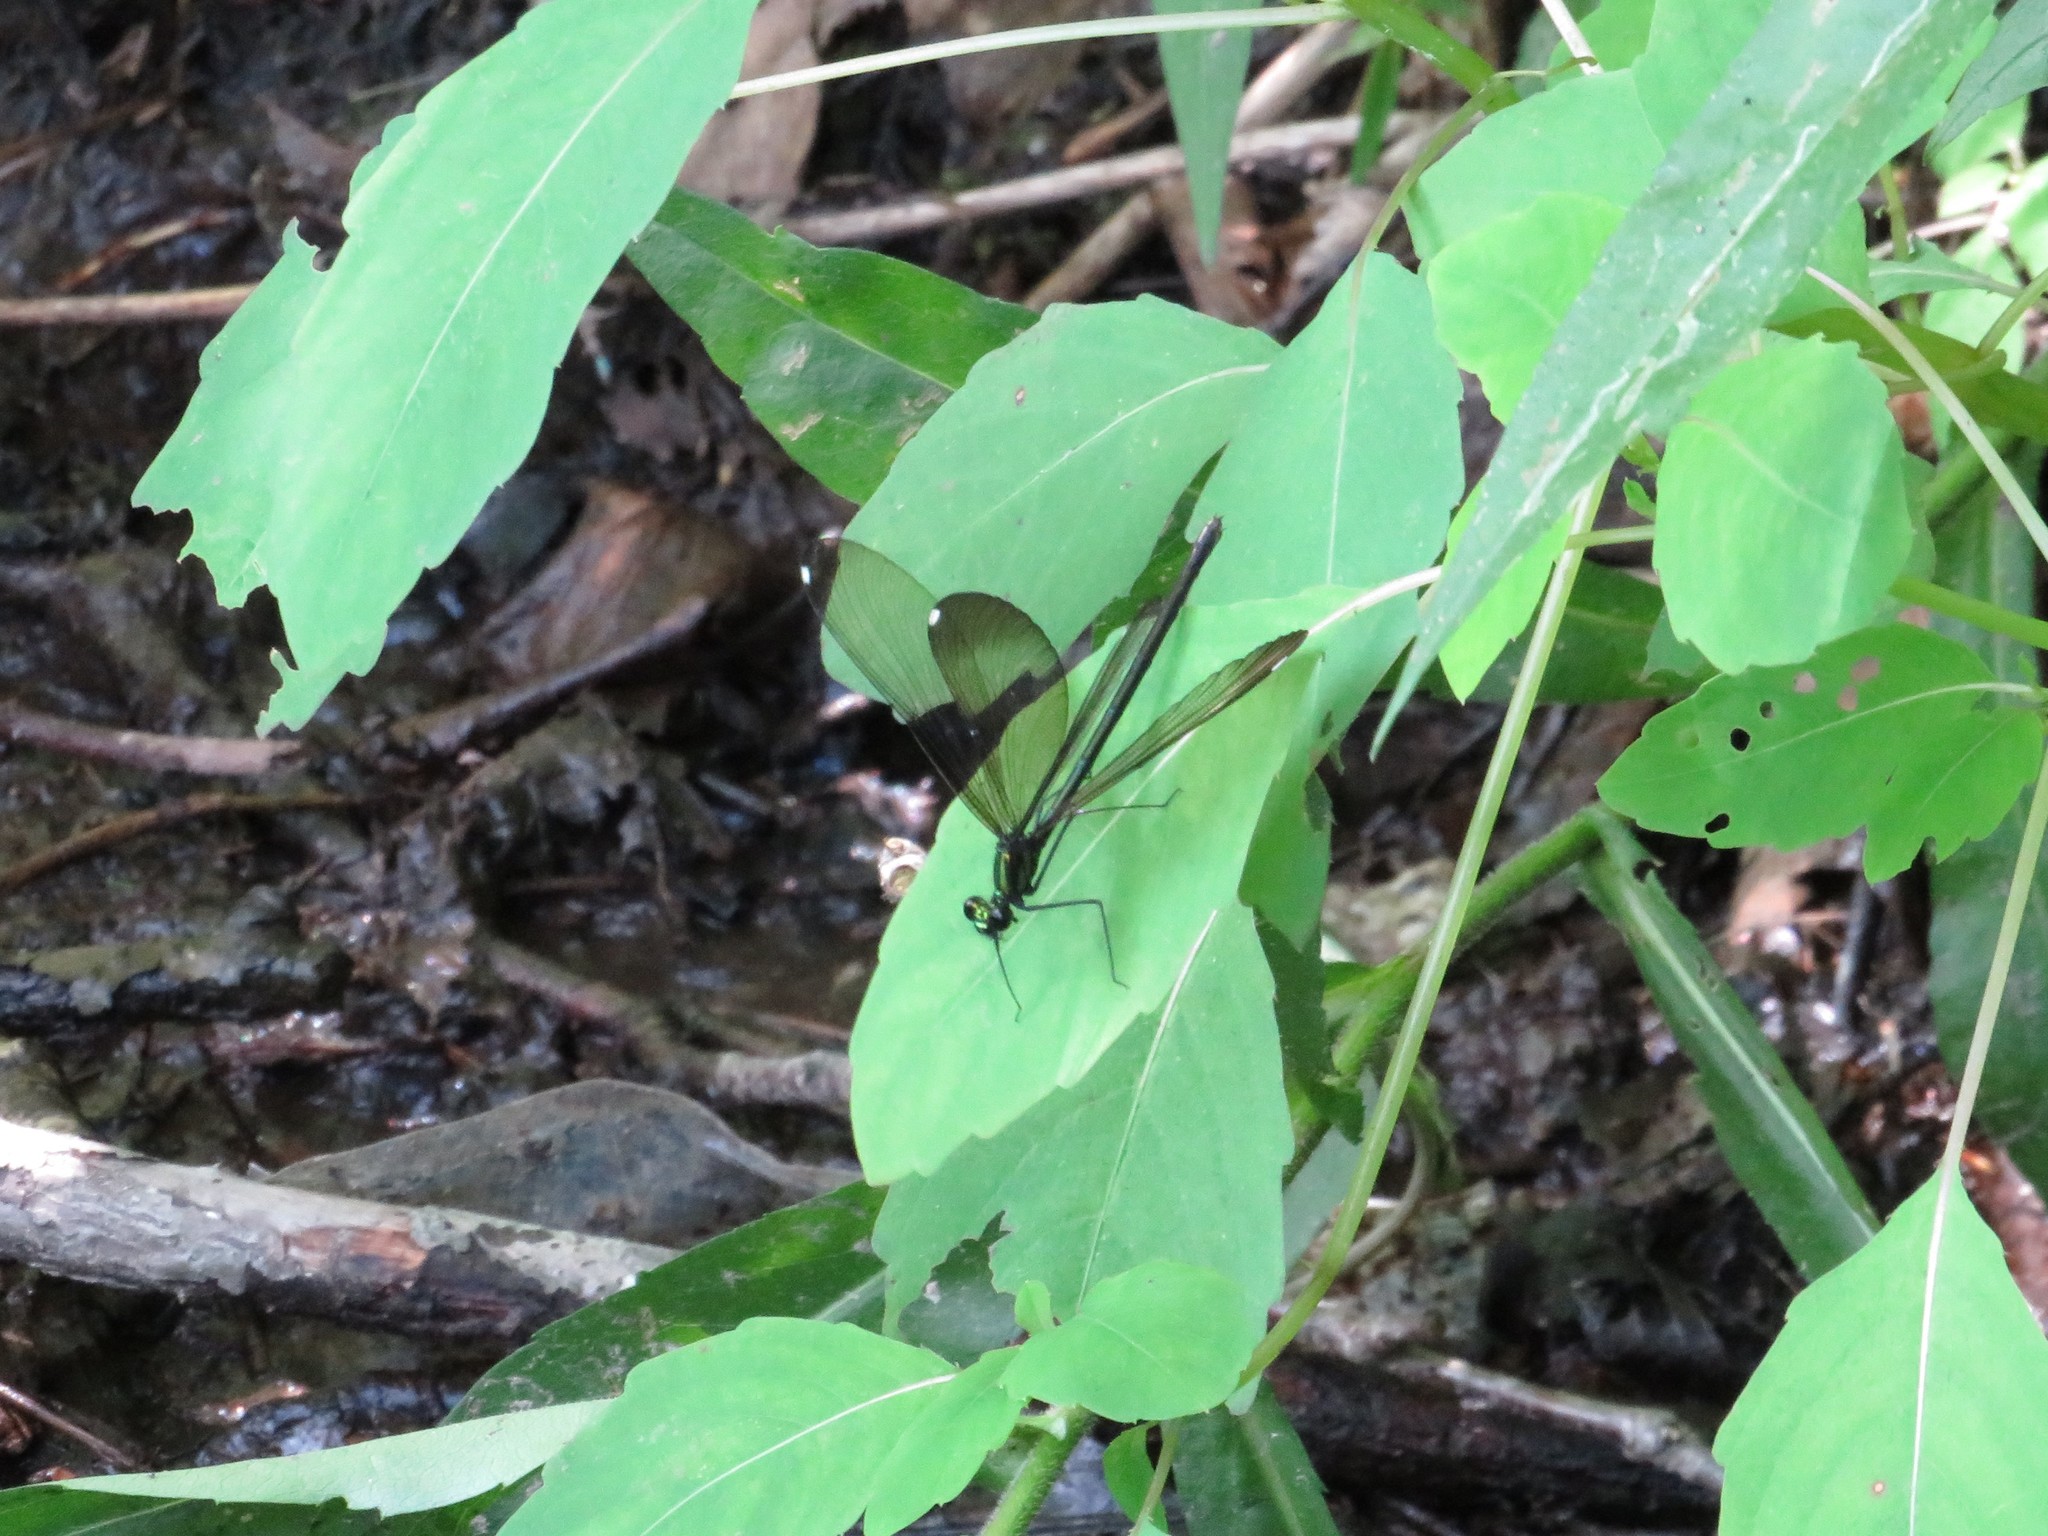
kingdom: Animalia
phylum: Arthropoda
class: Insecta
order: Odonata
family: Calopterygidae
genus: Calopteryx
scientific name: Calopteryx maculata
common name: Ebony jewelwing
